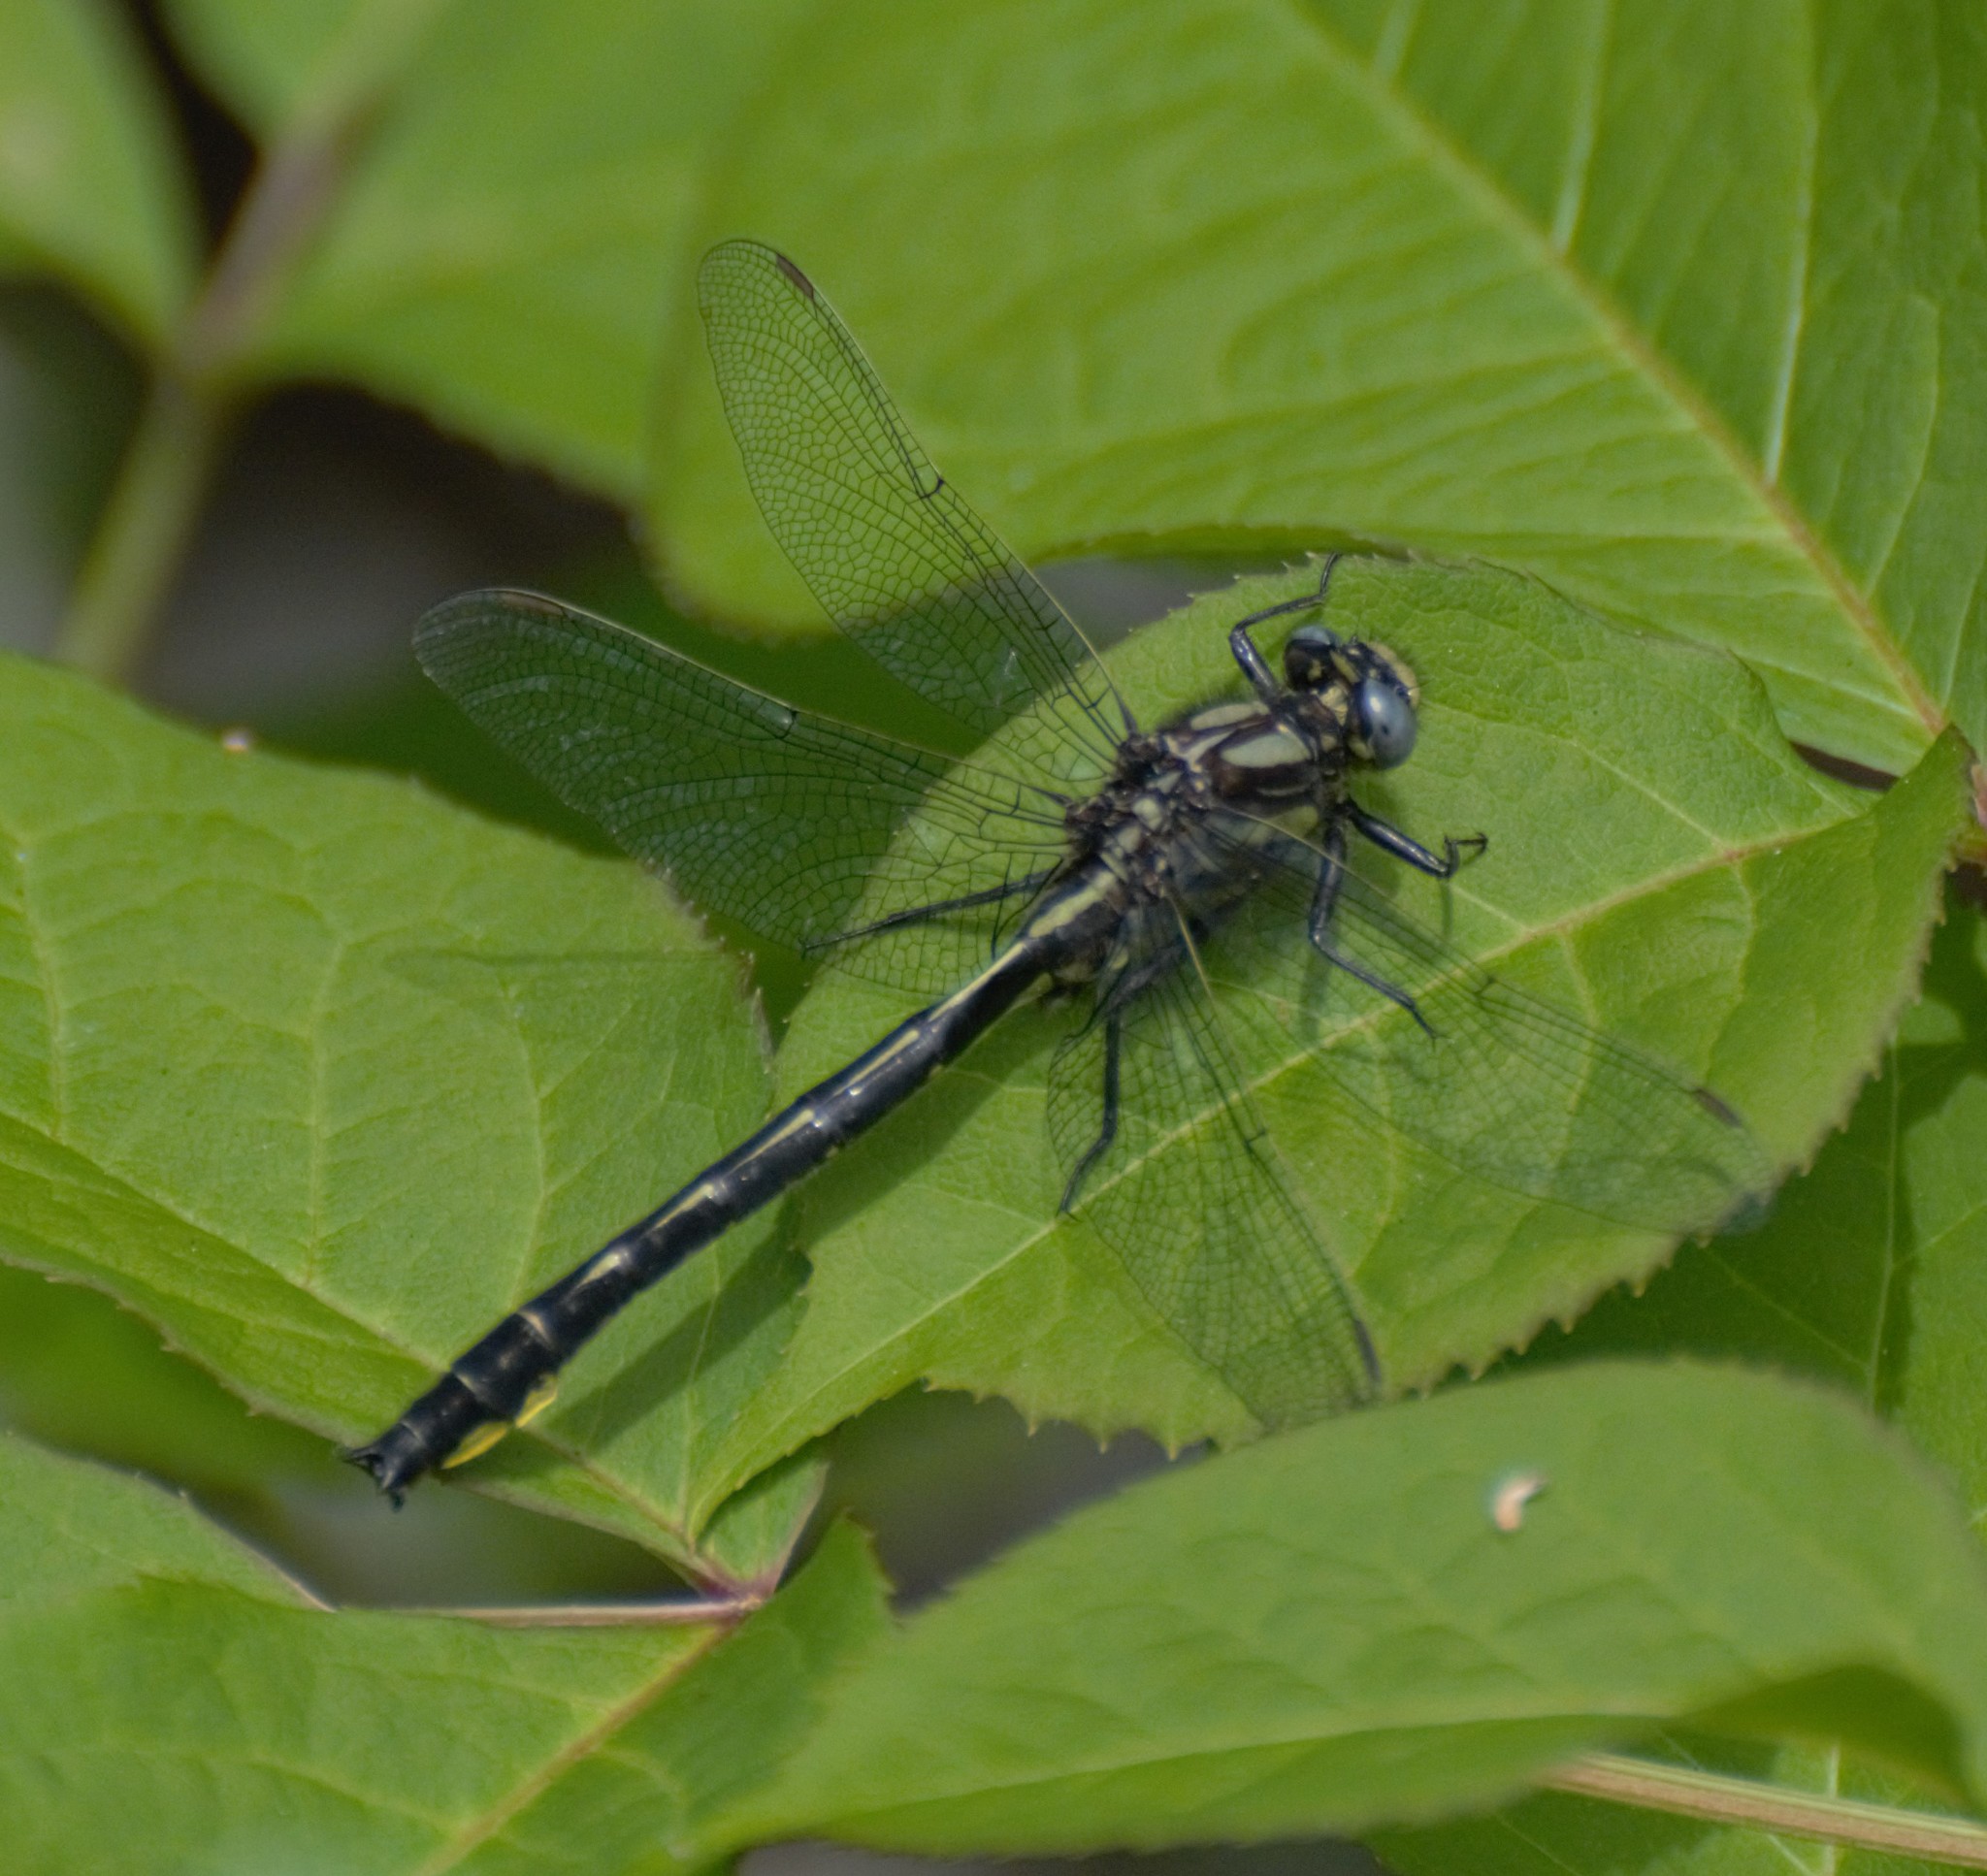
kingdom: Animalia
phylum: Arthropoda
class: Insecta
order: Odonata
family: Gomphidae
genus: Phanogomphus
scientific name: Phanogomphus borealis
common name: Beaverpond clubtail
